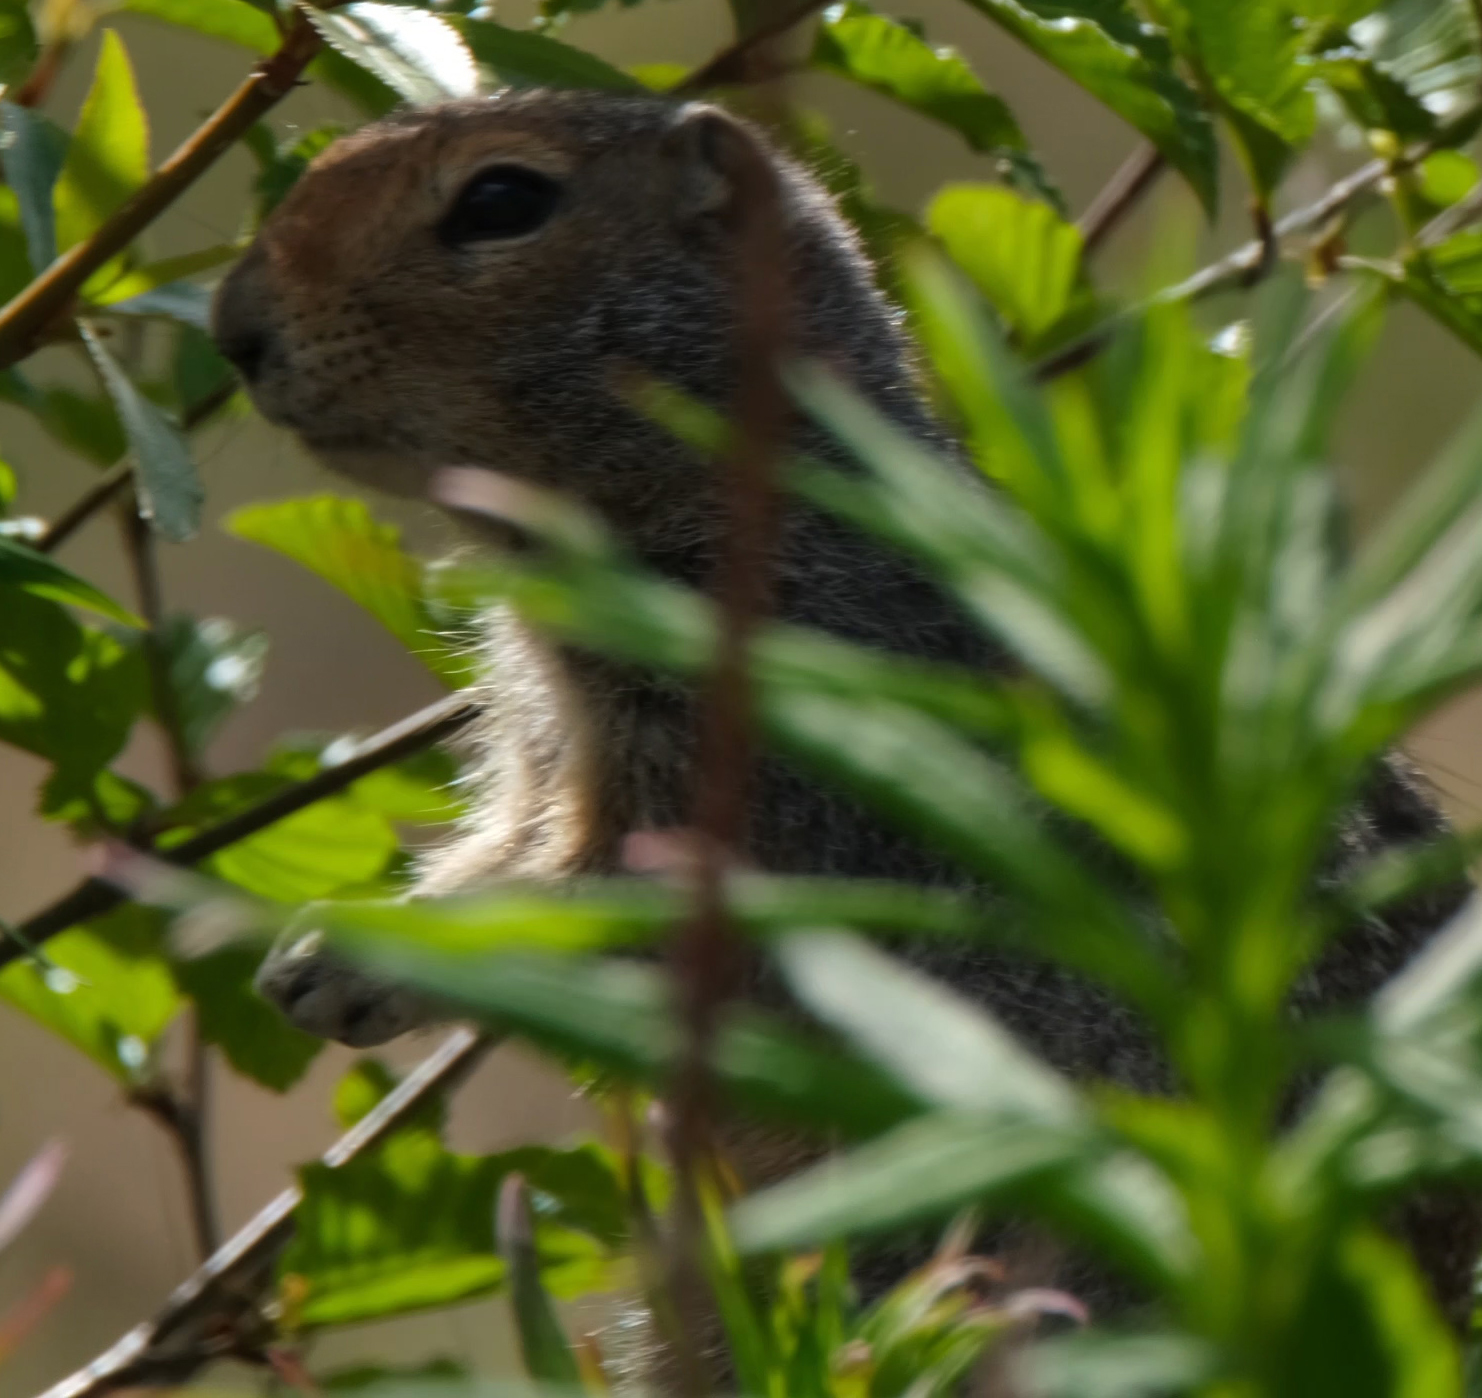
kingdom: Animalia
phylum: Chordata
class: Mammalia
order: Rodentia
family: Sciuridae
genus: Urocitellus
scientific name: Urocitellus parryii
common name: Arctic ground squirrel
